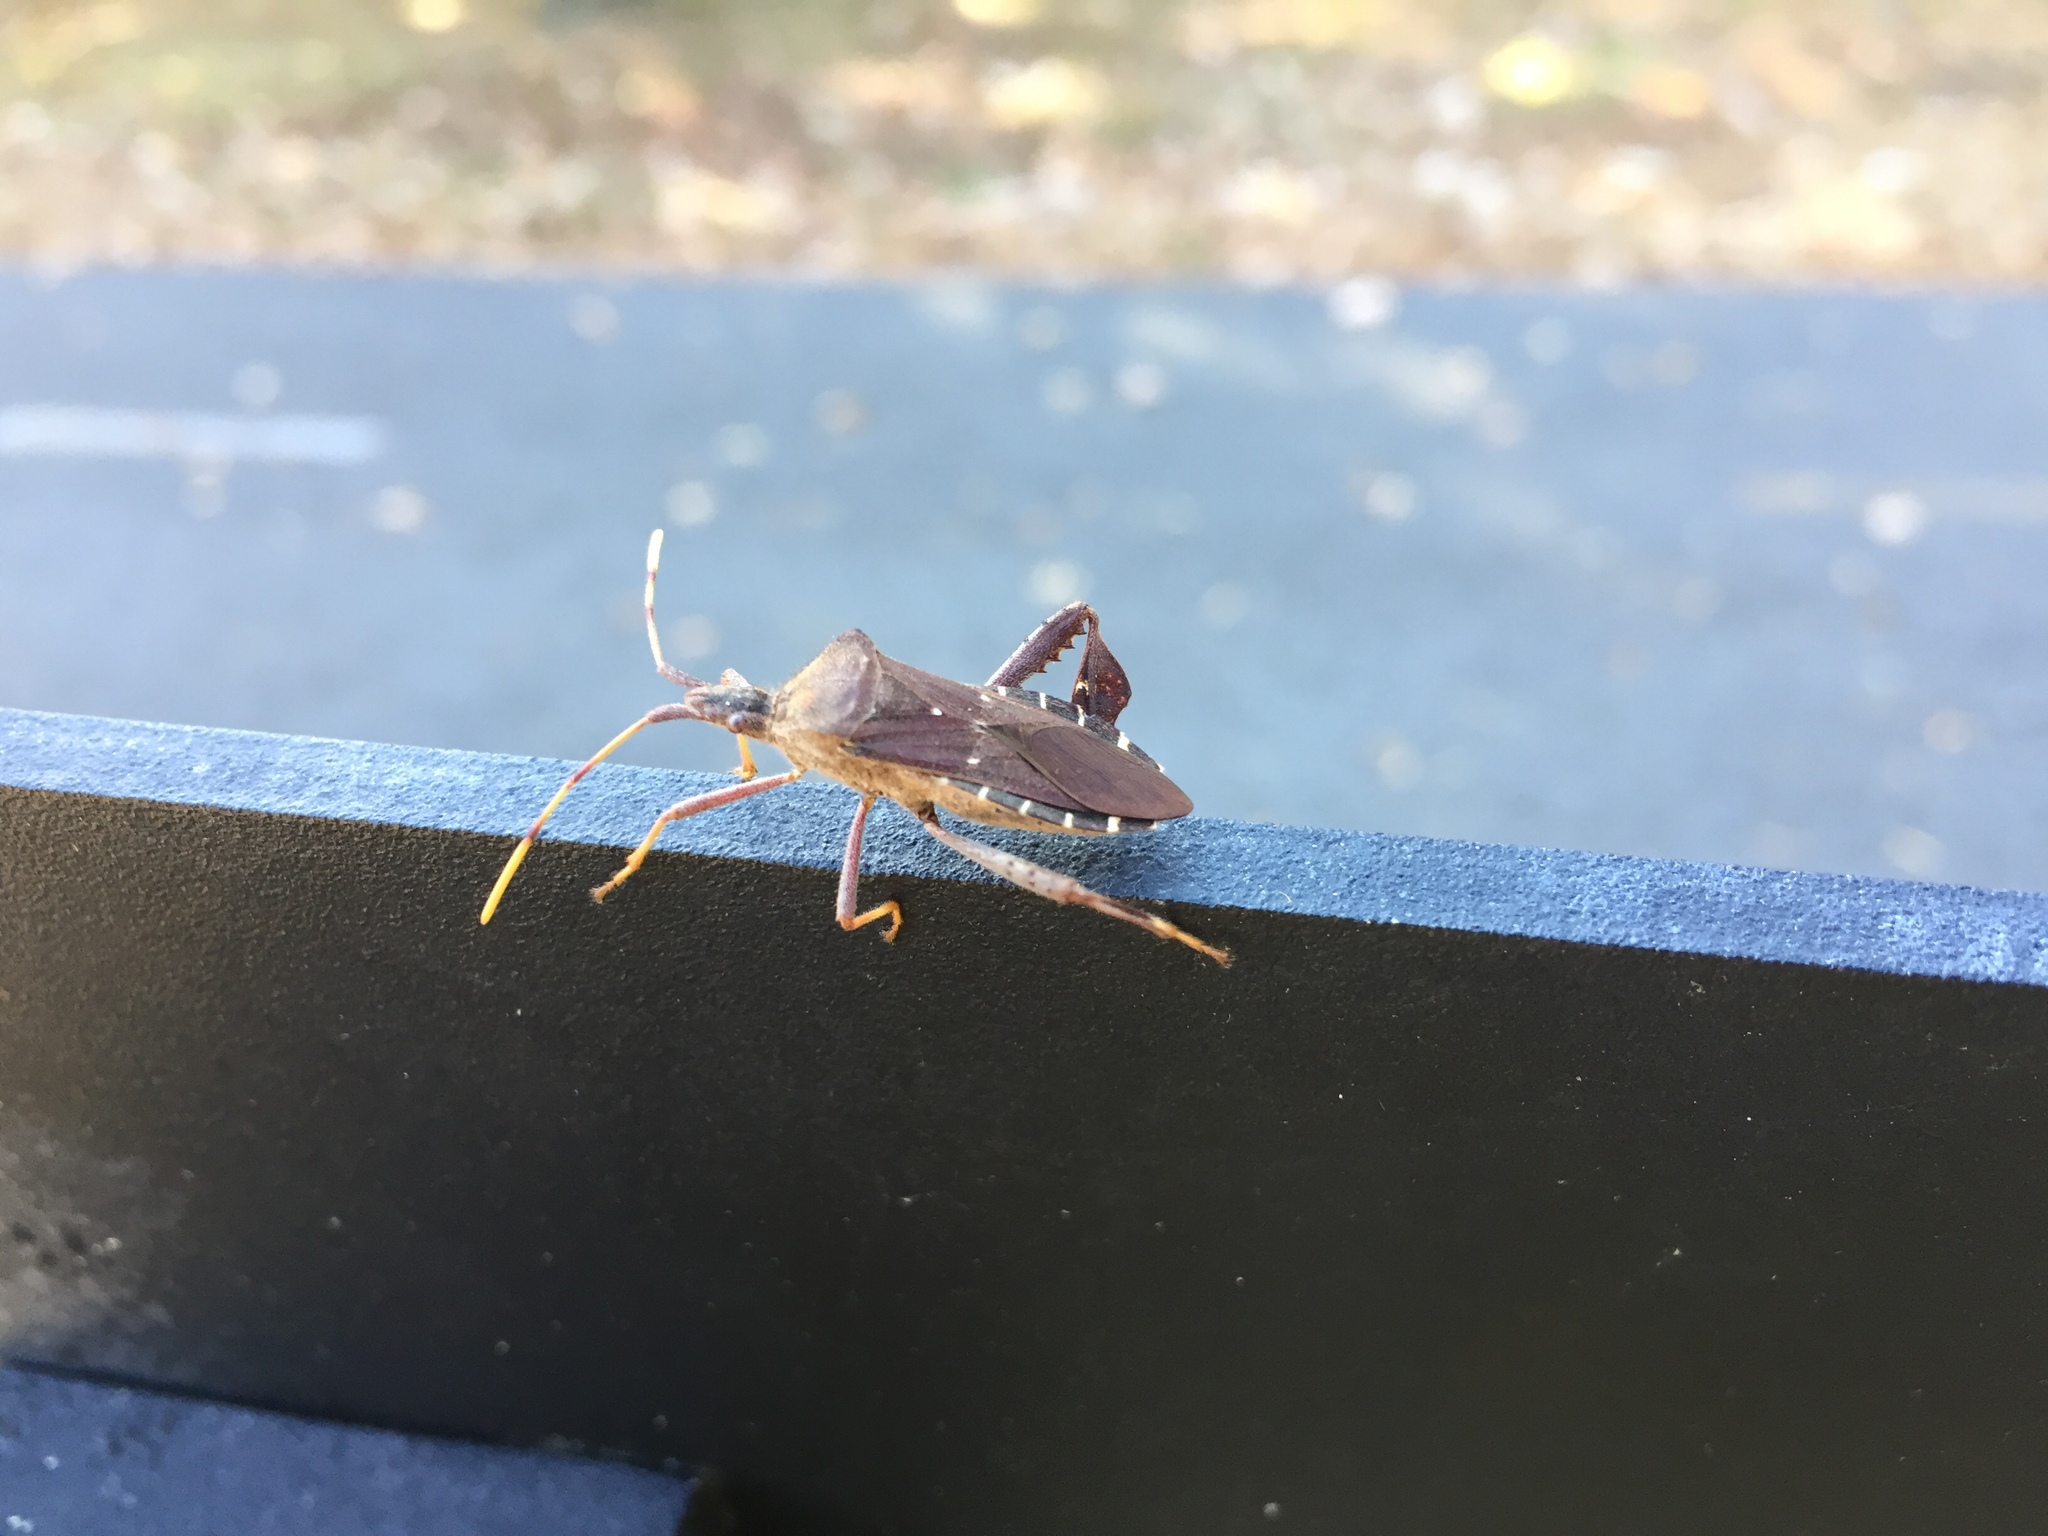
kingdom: Animalia
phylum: Arthropoda
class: Insecta
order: Hemiptera
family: Coreidae
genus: Leptoglossus
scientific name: Leptoglossus oppositus
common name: Northern leaf-footed bug
